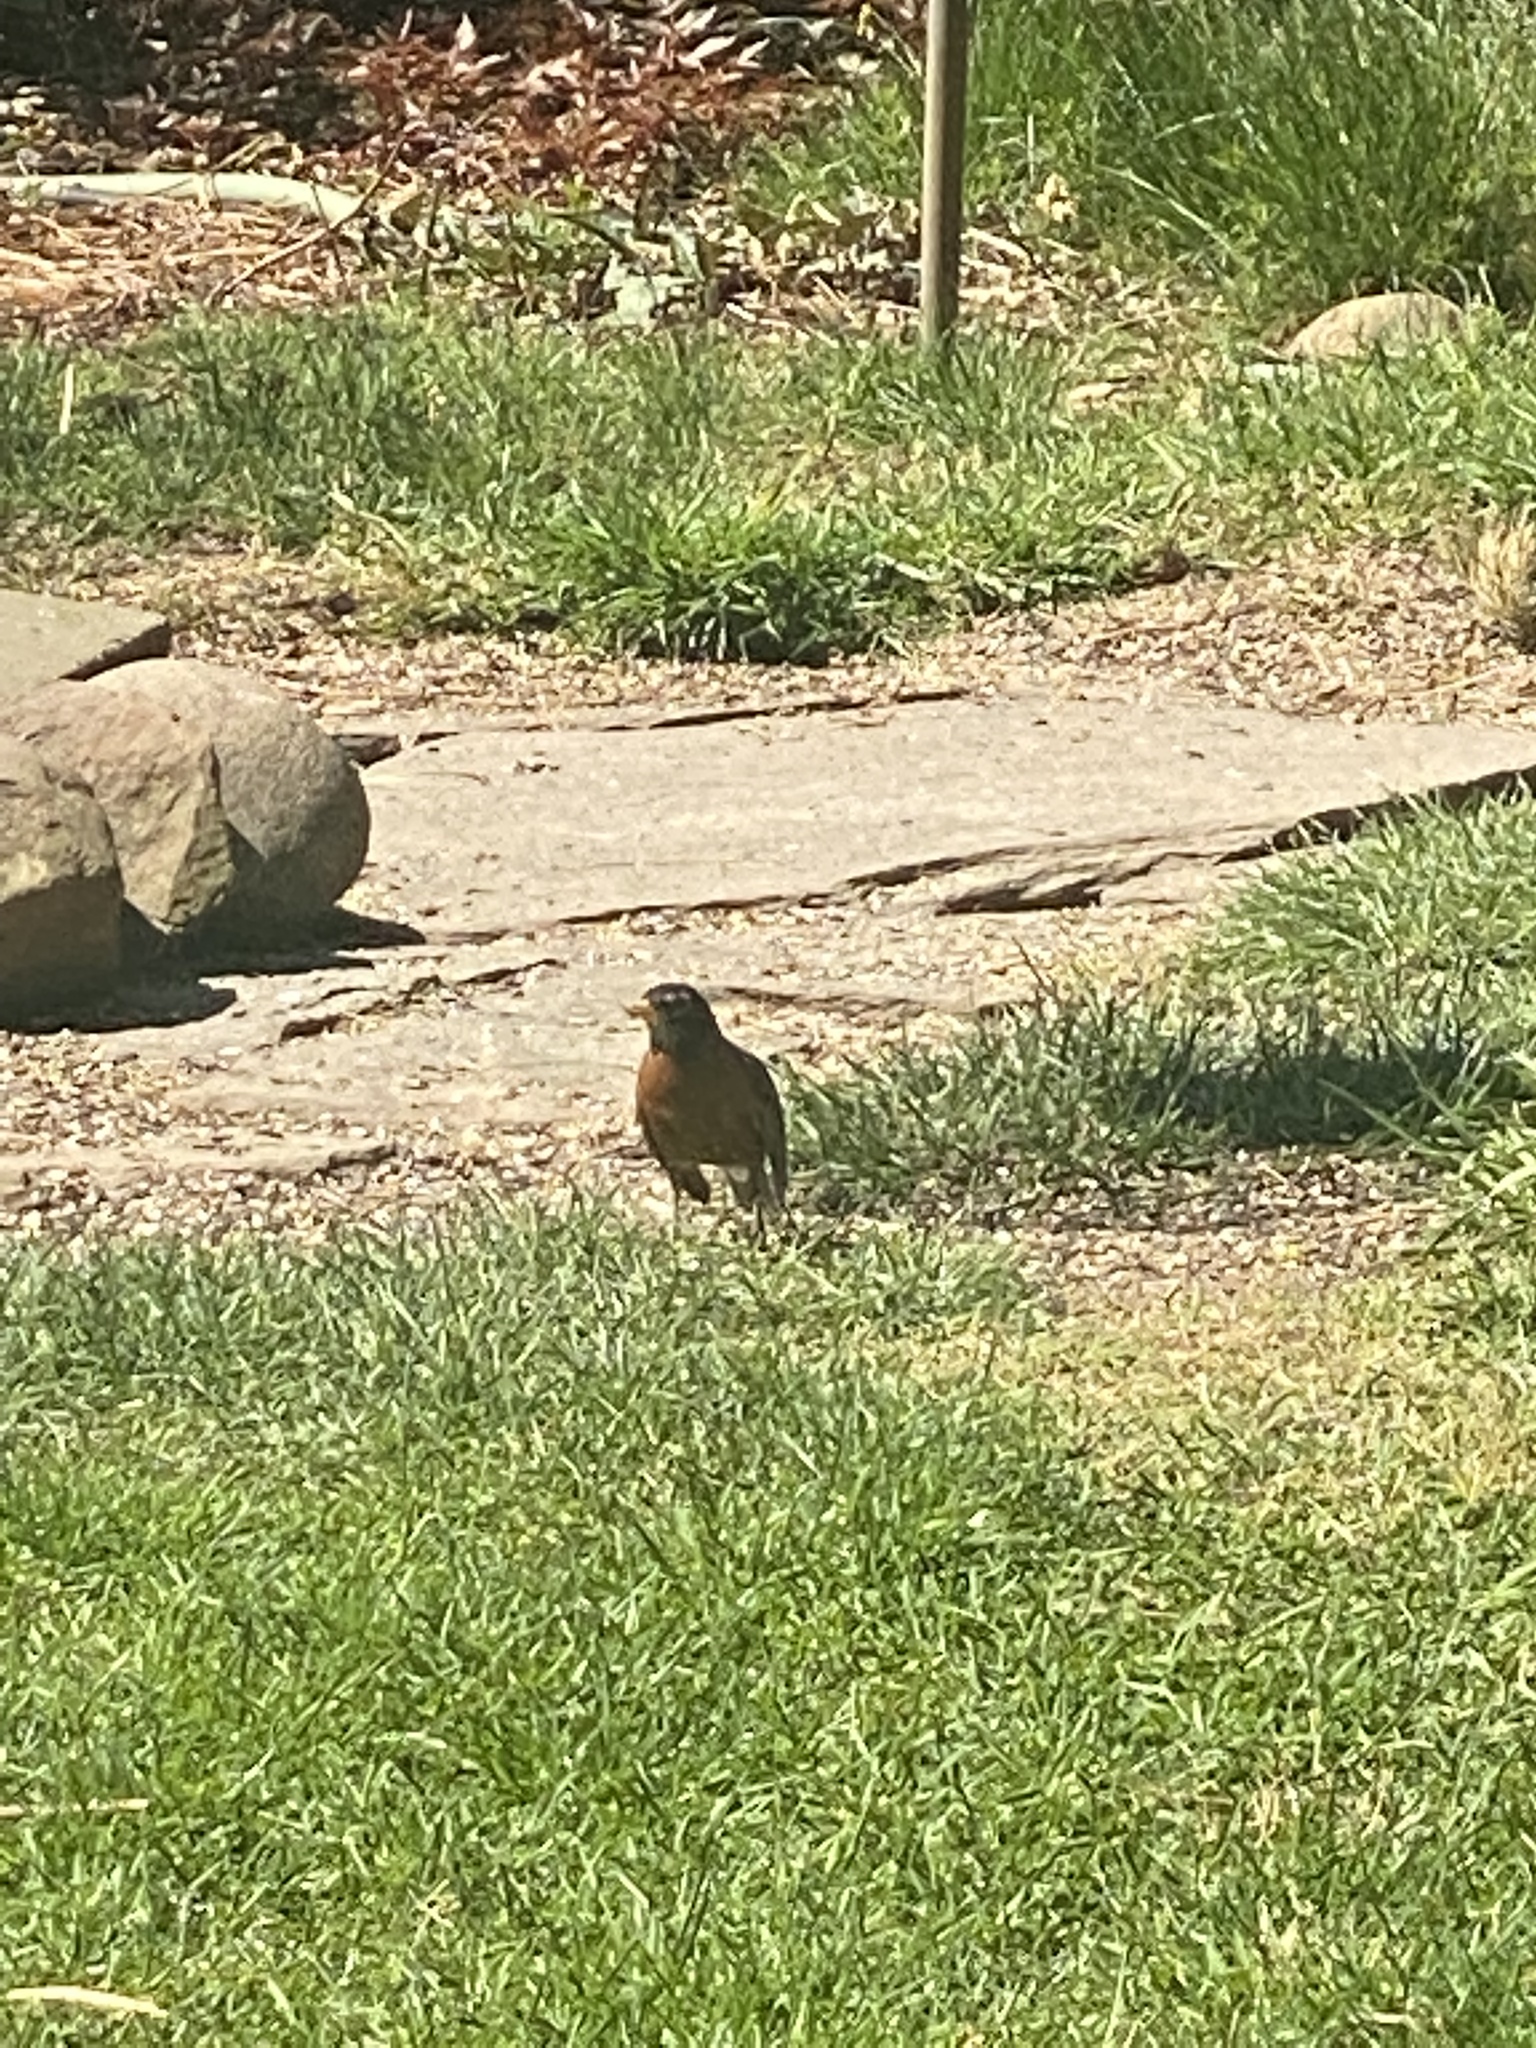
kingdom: Animalia
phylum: Chordata
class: Aves
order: Passeriformes
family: Turdidae
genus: Turdus
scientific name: Turdus migratorius
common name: American robin
